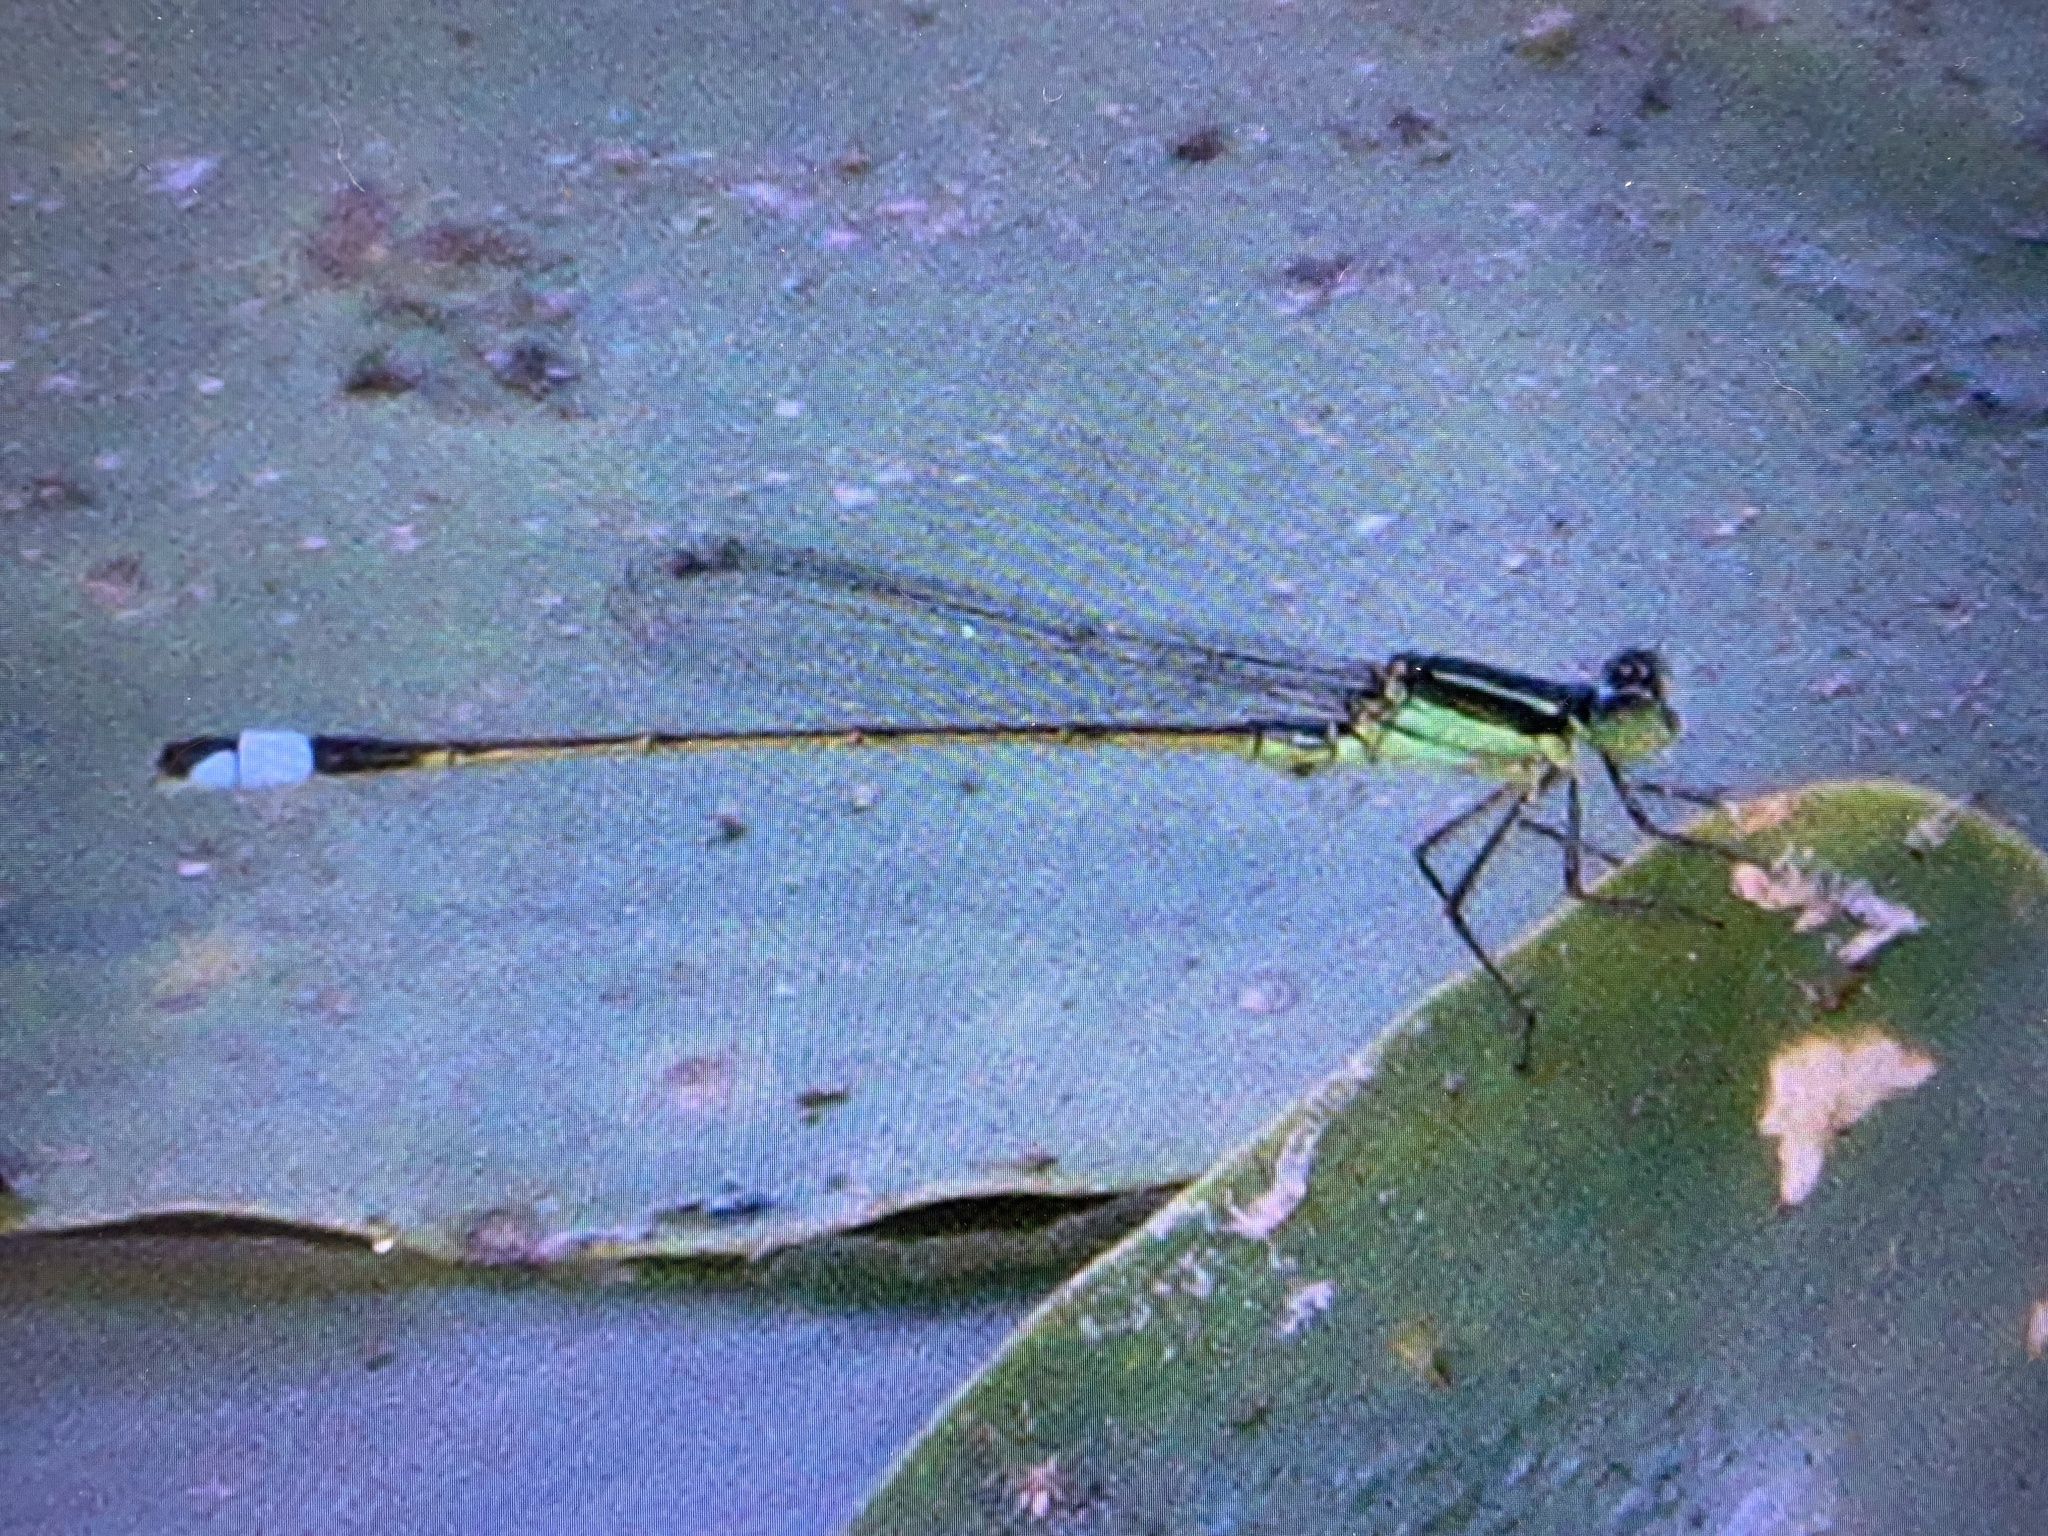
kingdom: Animalia
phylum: Arthropoda
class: Insecta
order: Odonata
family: Coenagrionidae
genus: Ischnura
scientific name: Ischnura ramburii
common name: Rambur's forktail
